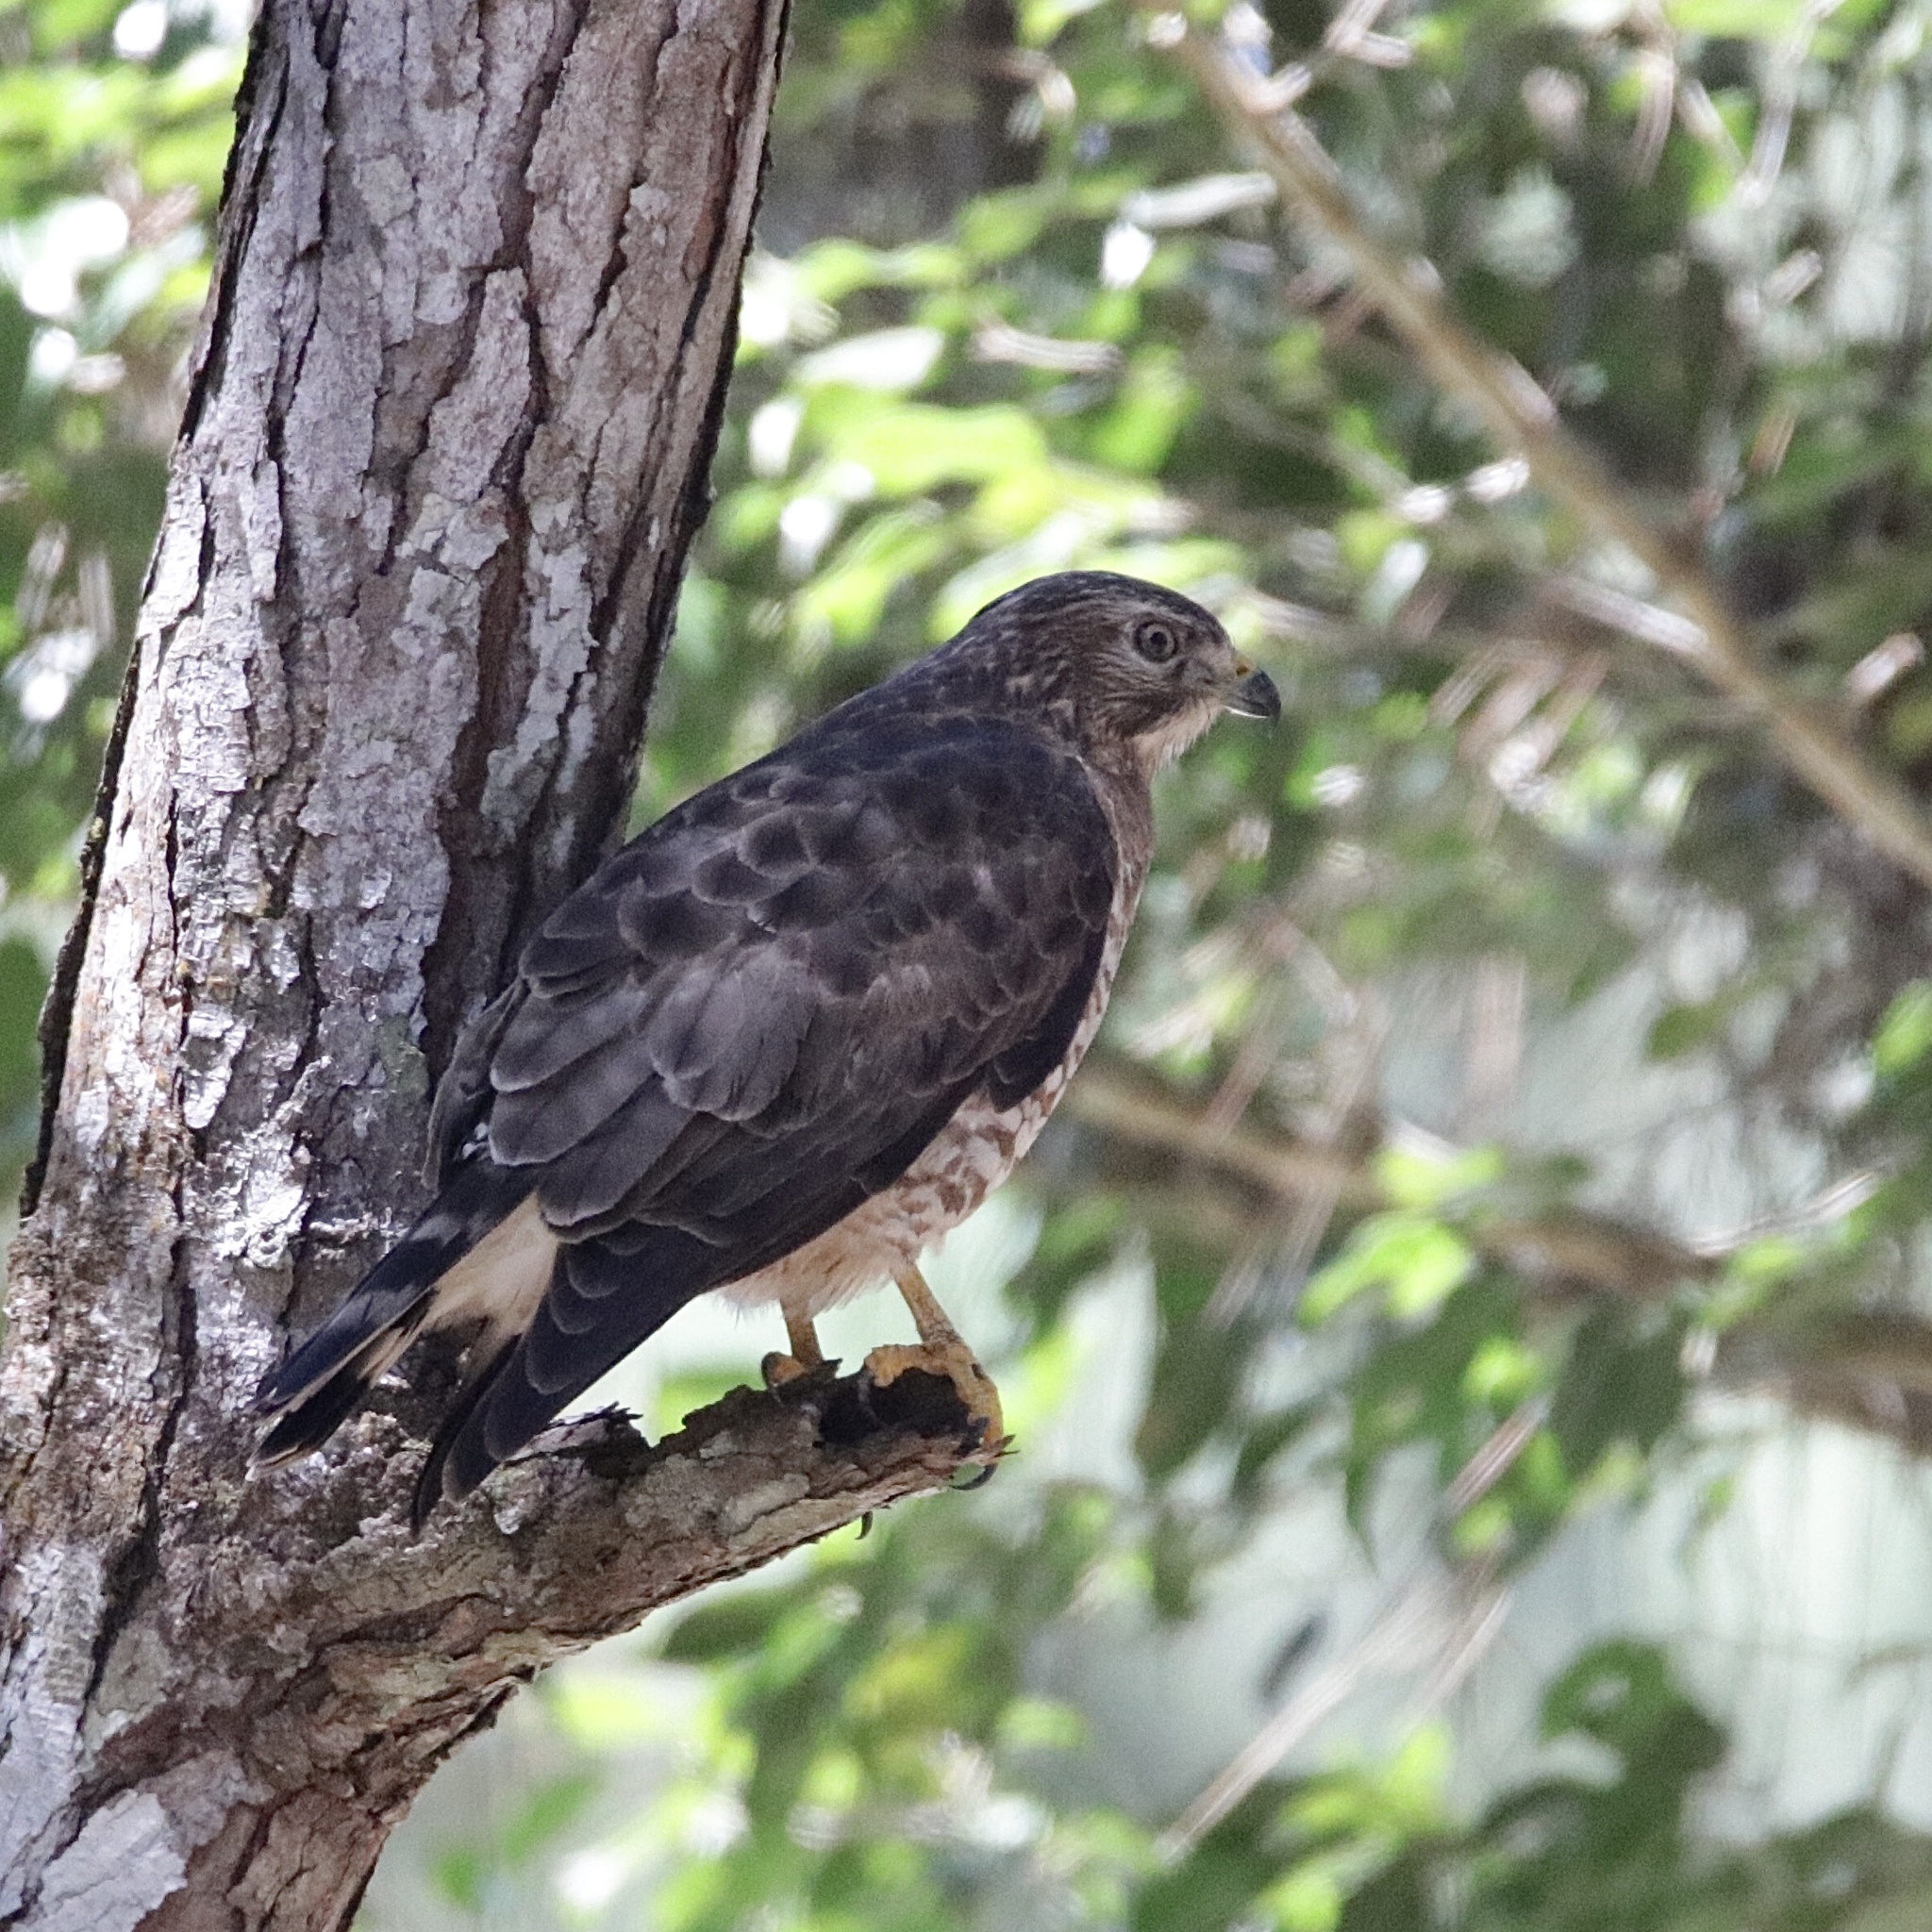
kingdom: Animalia
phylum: Chordata
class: Aves
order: Accipitriformes
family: Accipitridae
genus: Buteo
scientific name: Buteo platypterus
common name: Broad-winged hawk
